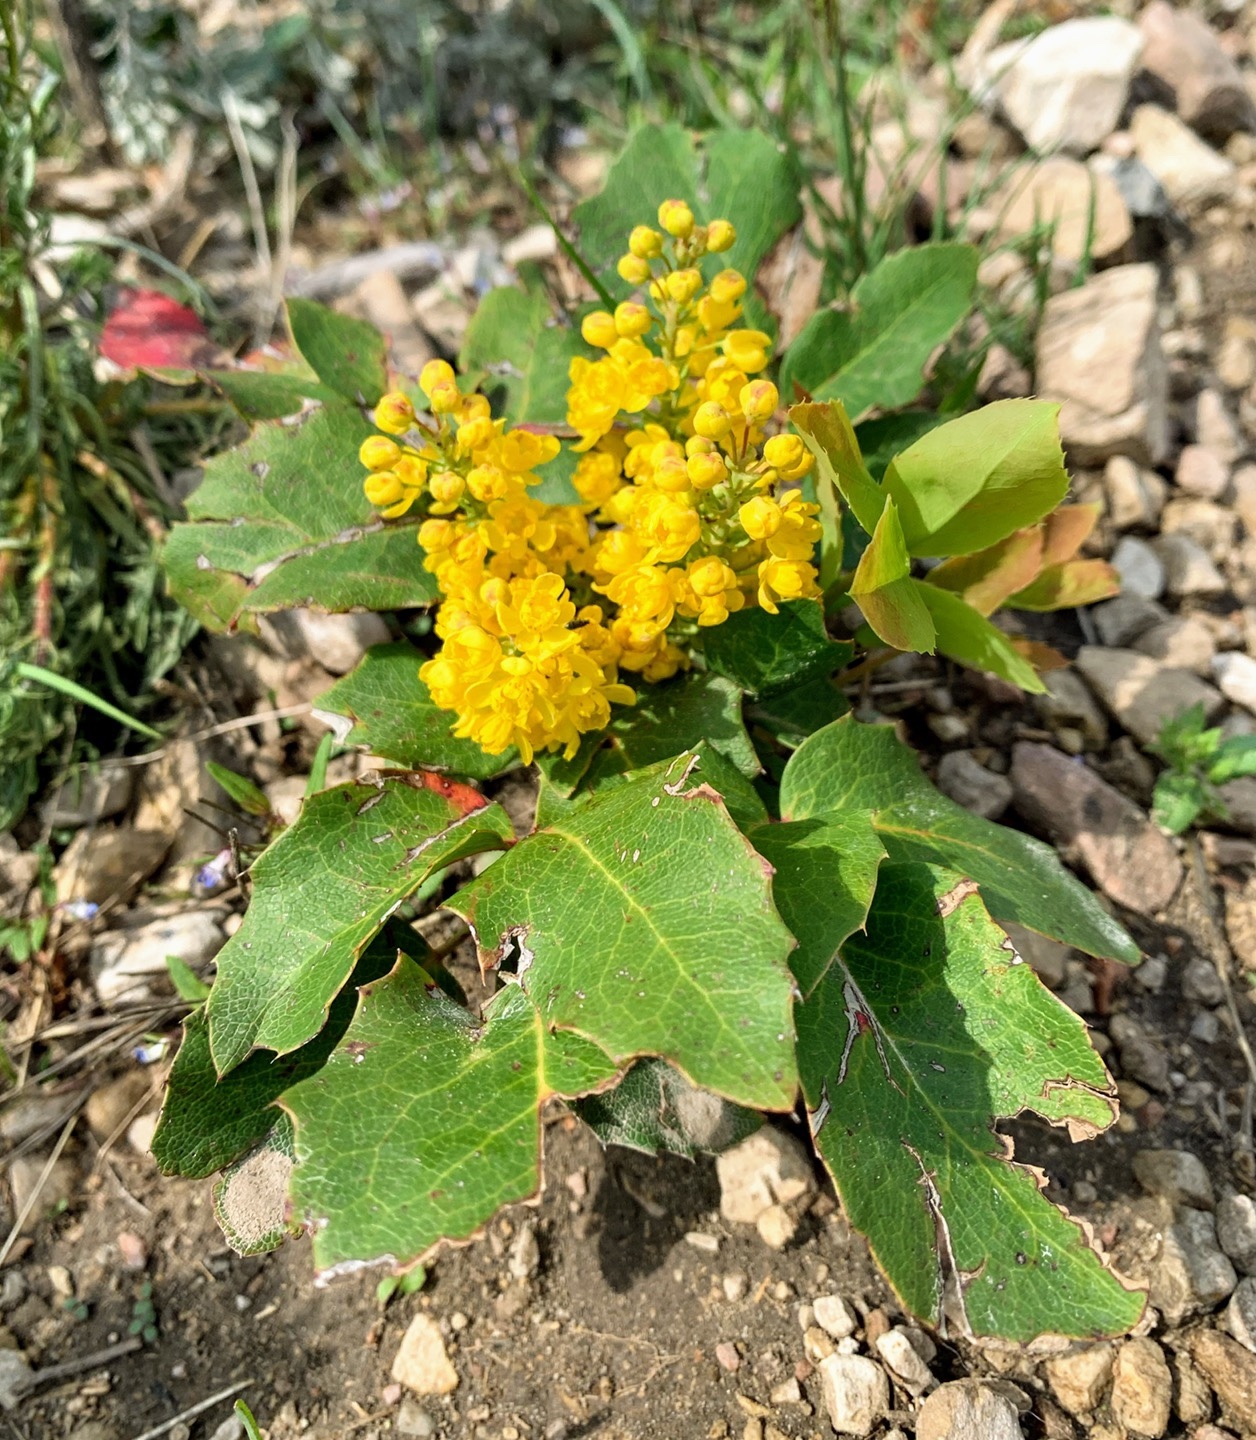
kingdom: Plantae
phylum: Tracheophyta
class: Magnoliopsida
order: Ranunculales
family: Berberidaceae
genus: Mahonia
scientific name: Mahonia repens
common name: Creeping oregon-grape
